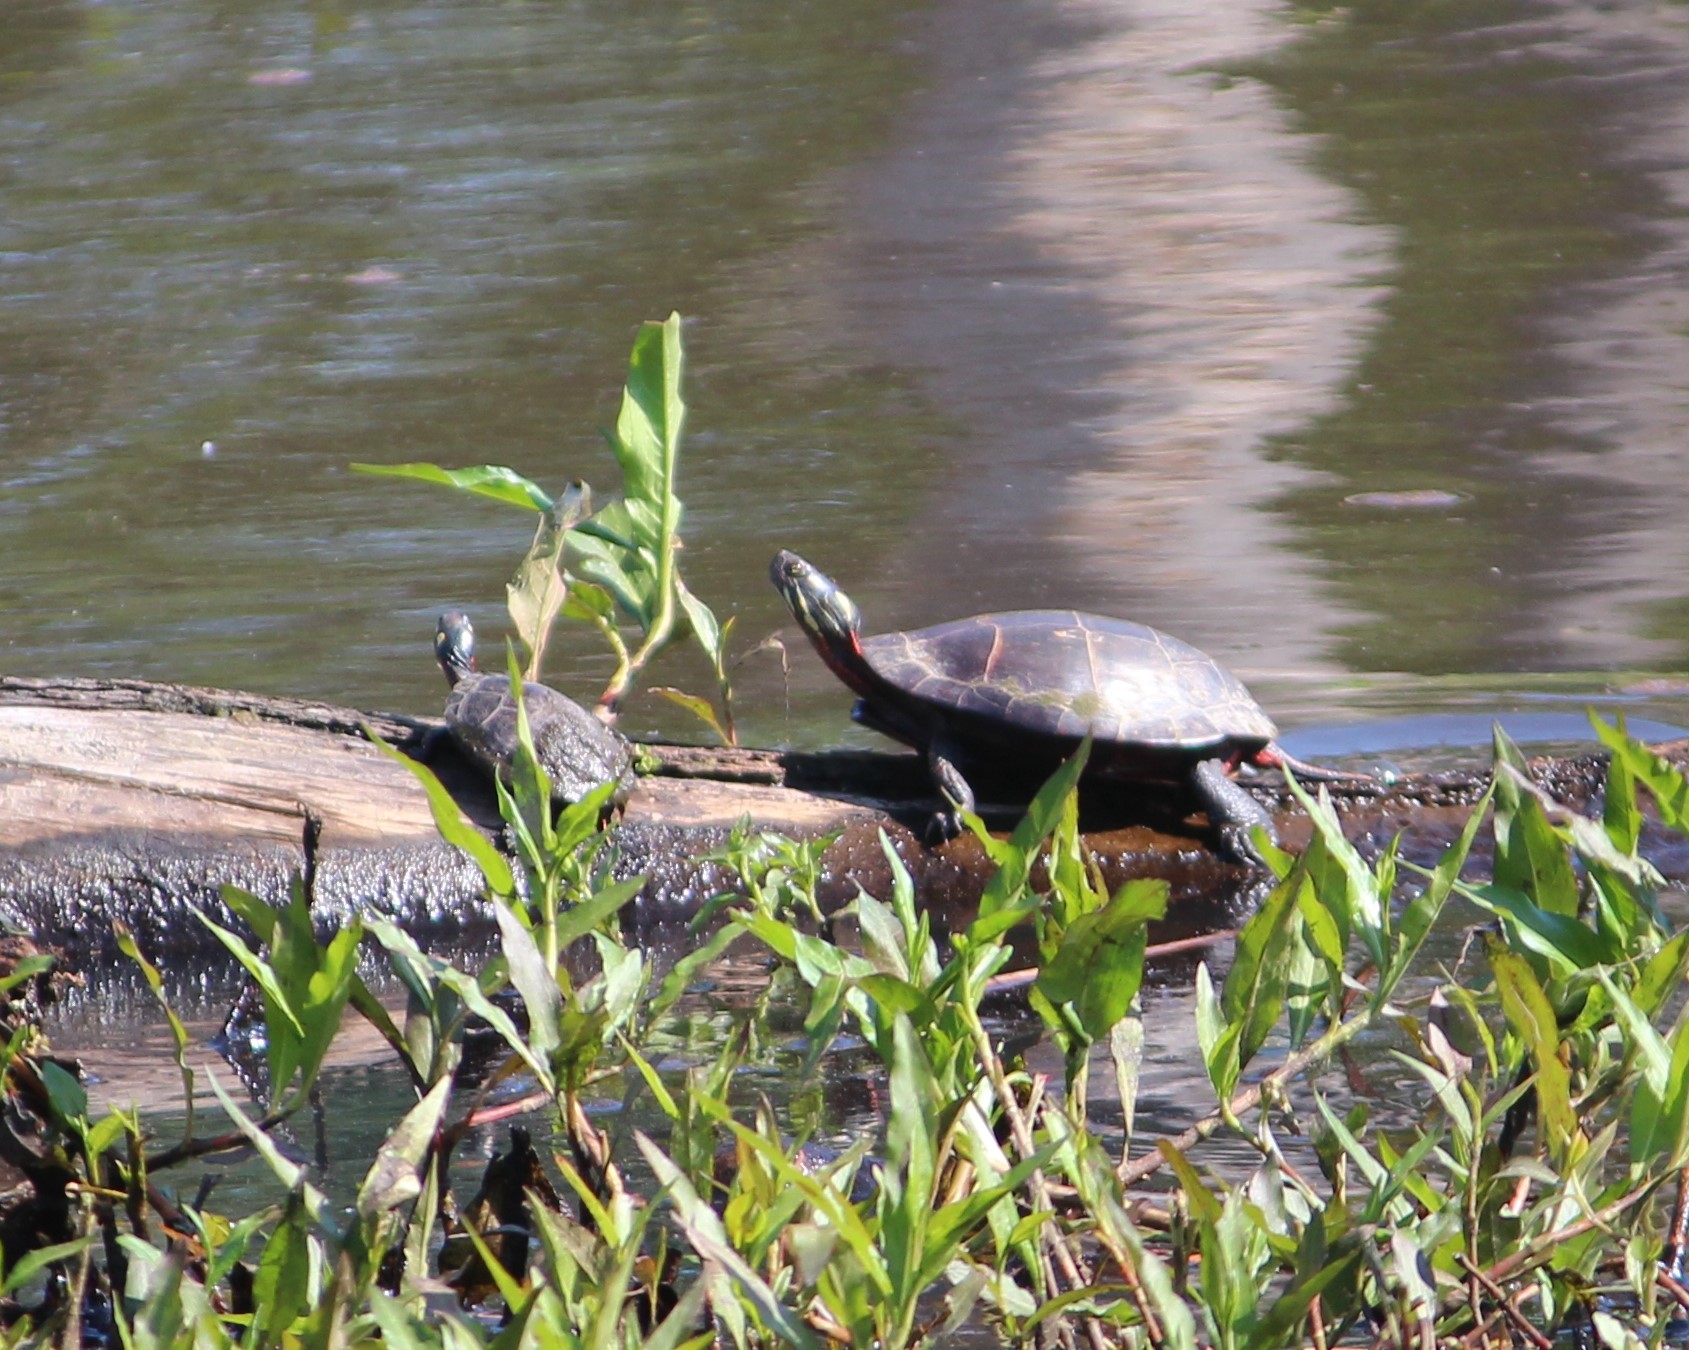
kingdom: Animalia
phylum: Chordata
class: Testudines
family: Emydidae
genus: Chrysemys
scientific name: Chrysemys picta
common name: Painted turtle
